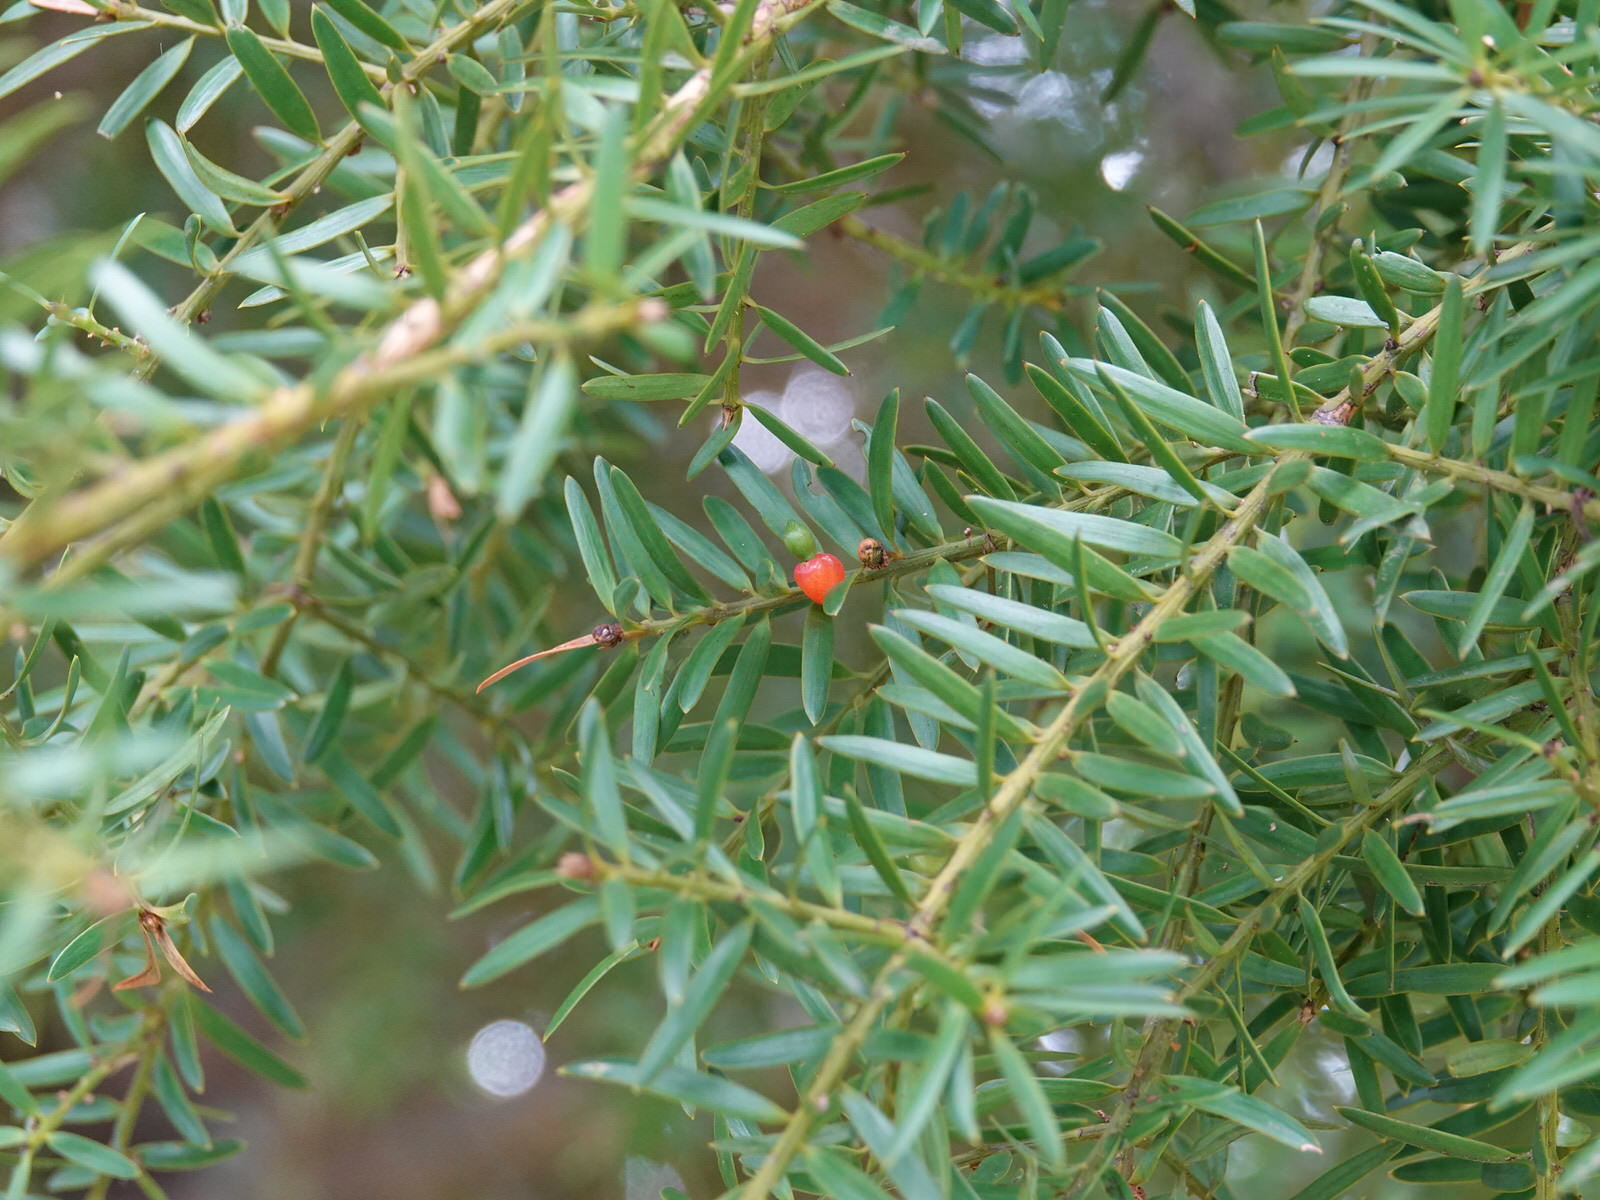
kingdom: Plantae
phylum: Tracheophyta
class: Pinopsida
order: Pinales
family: Podocarpaceae
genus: Podocarpus
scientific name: Podocarpus totara
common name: Totara
